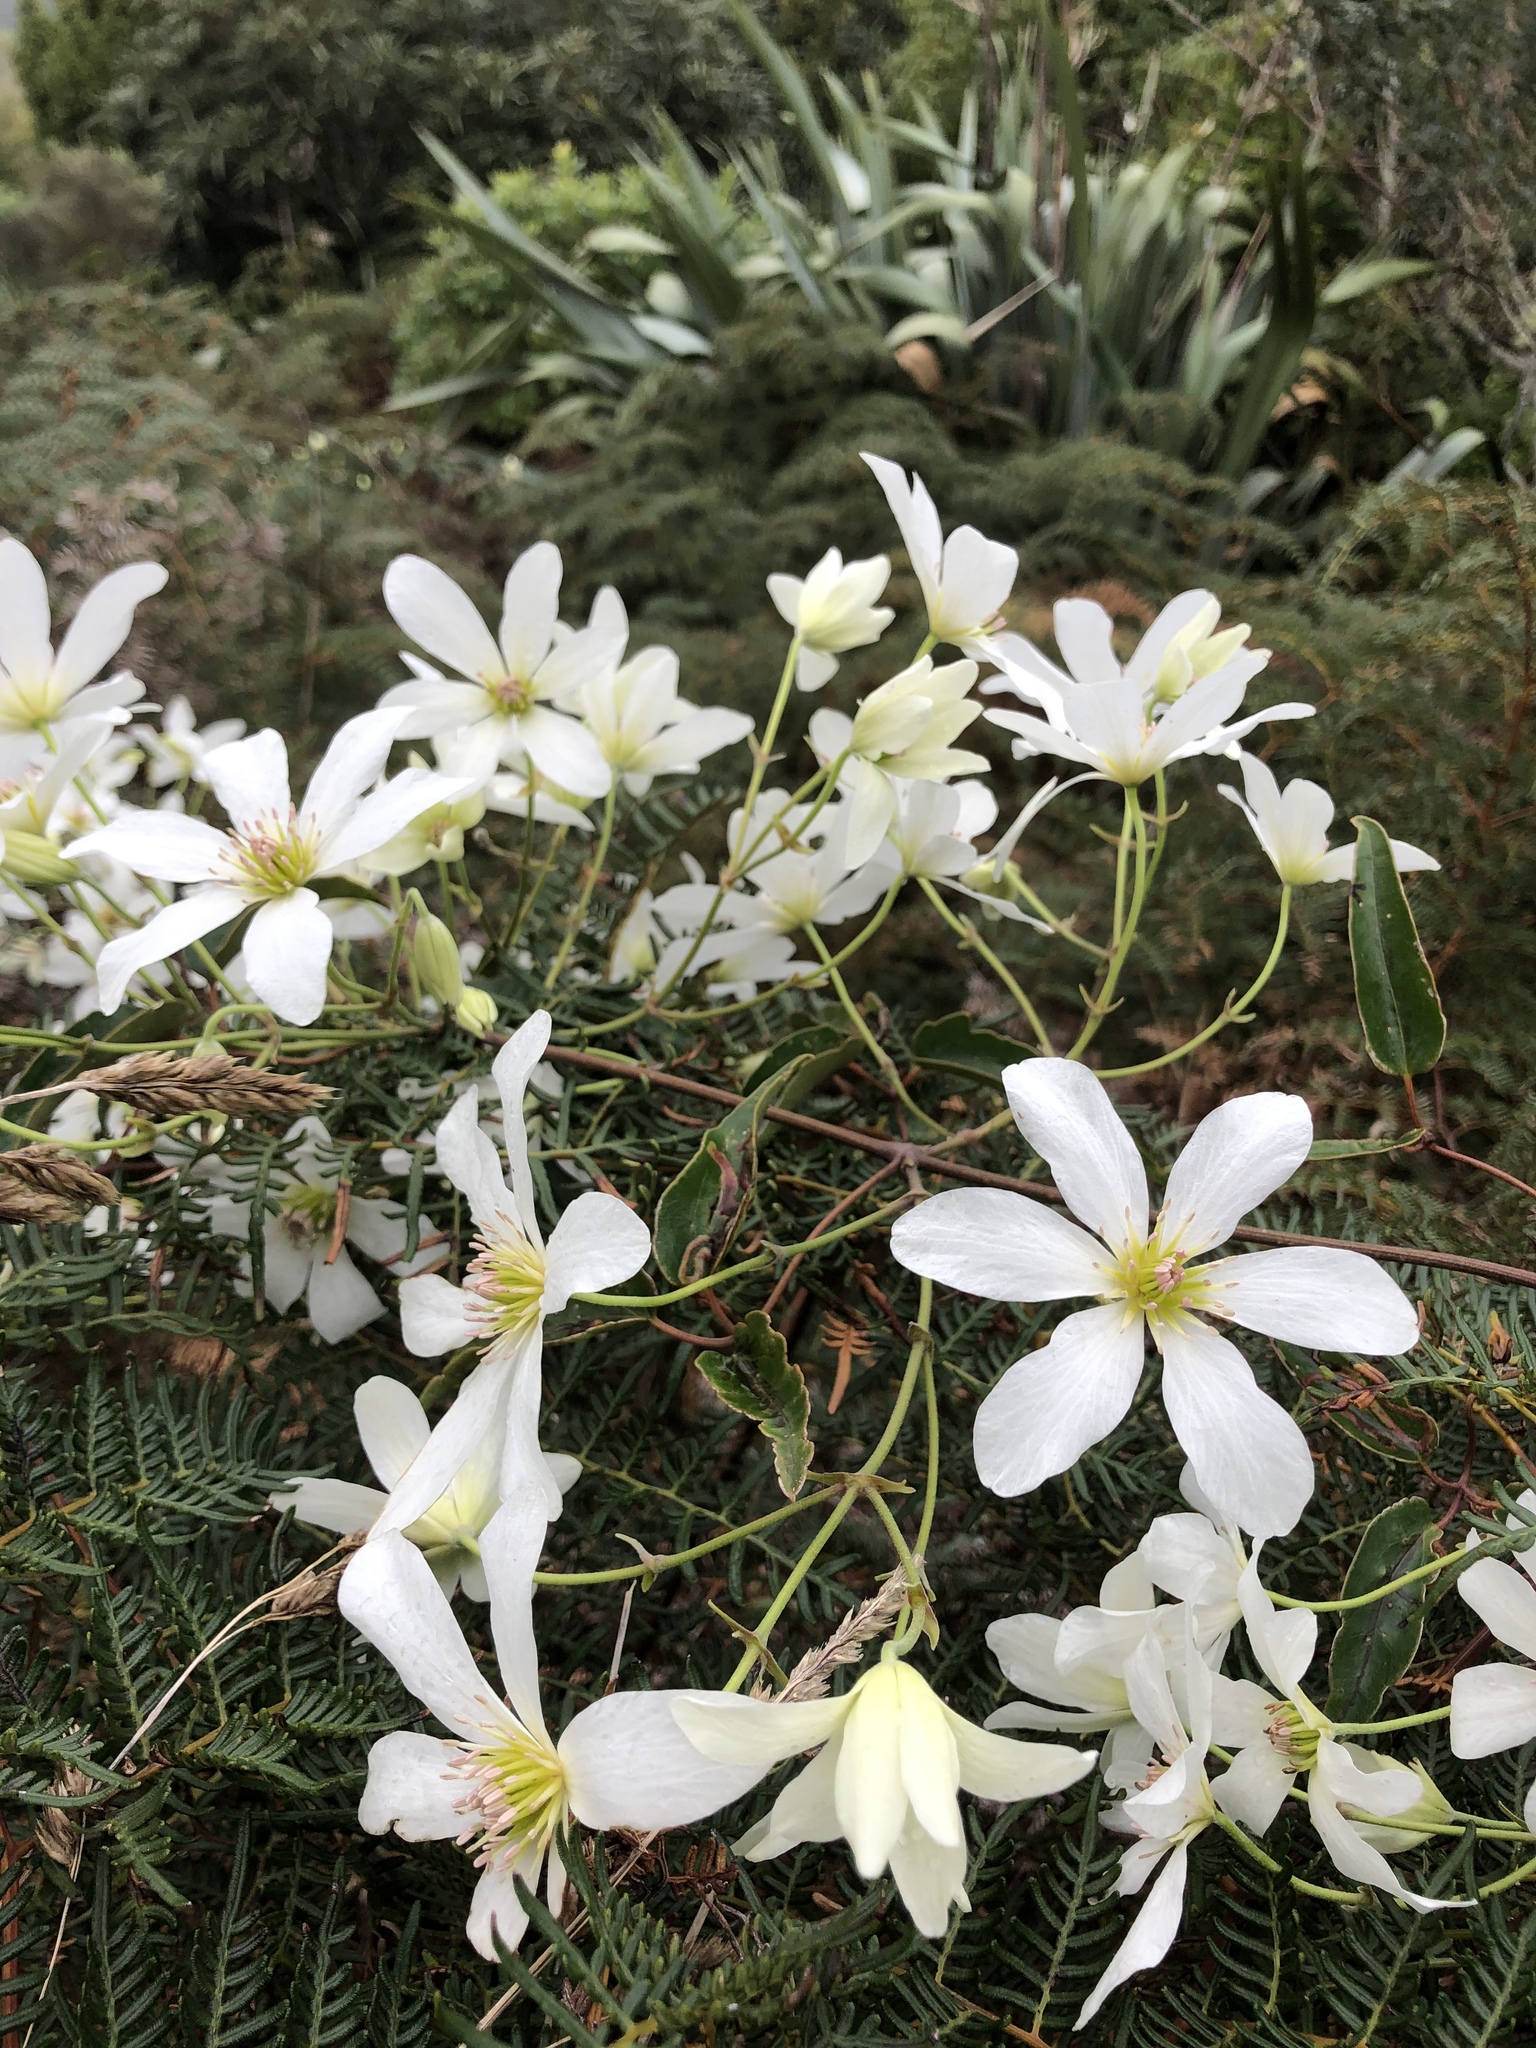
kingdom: Plantae
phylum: Tracheophyta
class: Magnoliopsida
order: Ranunculales
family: Ranunculaceae
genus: Clematis
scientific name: Clematis paniculata
